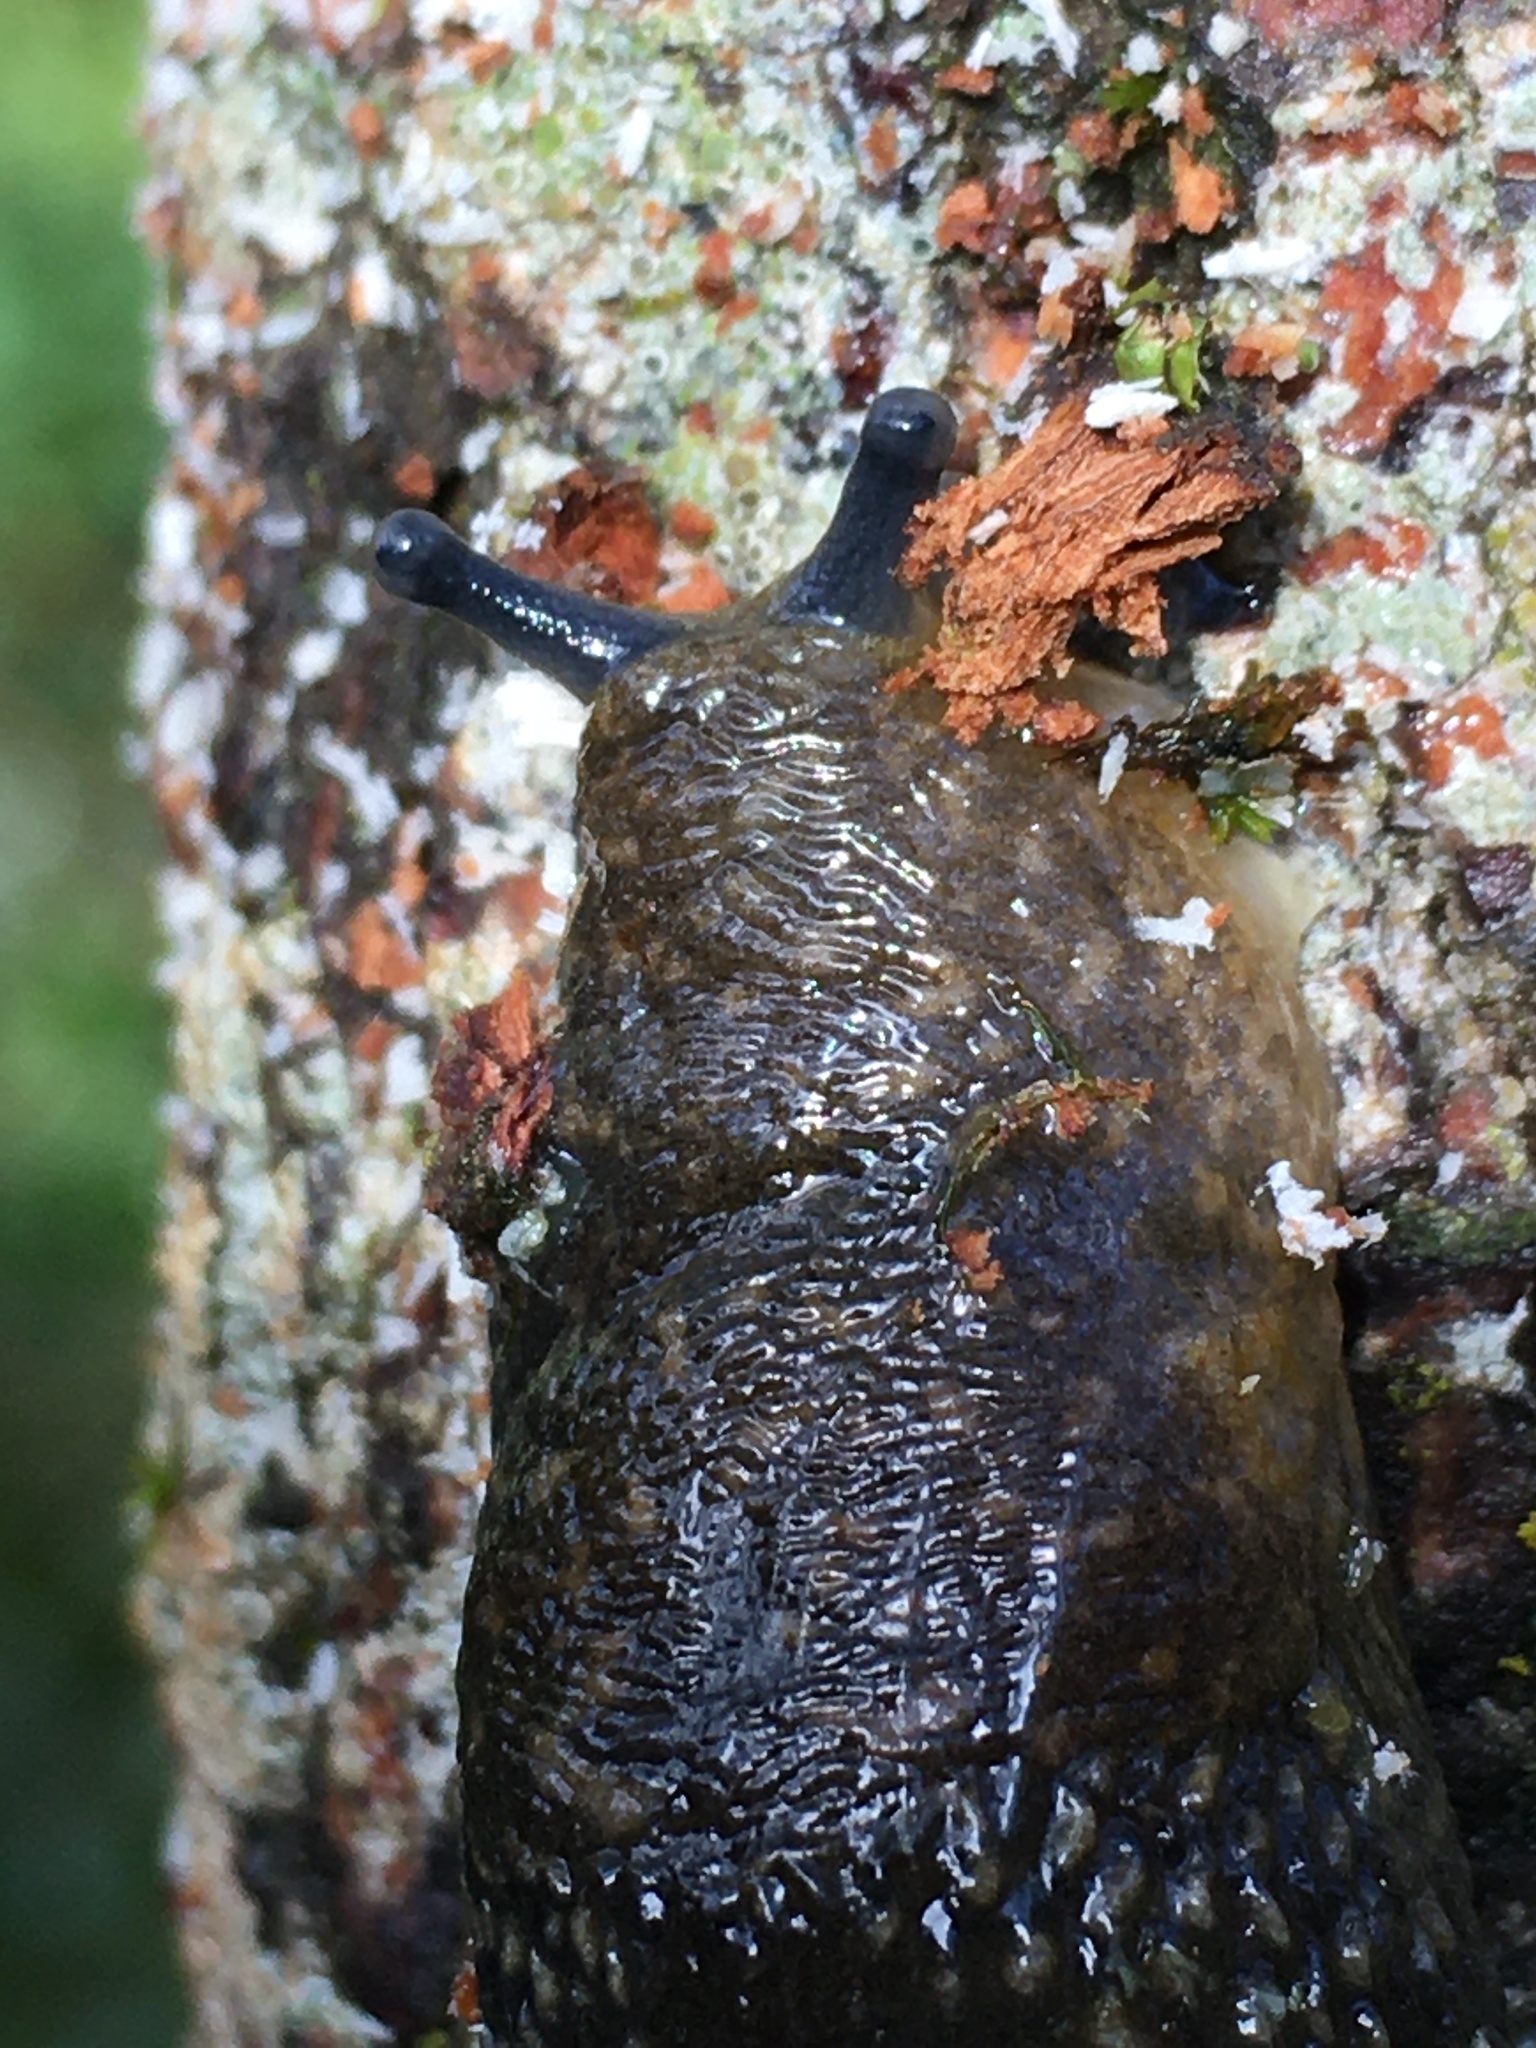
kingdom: Animalia
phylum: Mollusca
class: Gastropoda
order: Stylommatophora
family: Limacidae
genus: Limacus
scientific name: Limacus flavus
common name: Yellow gardenslug
